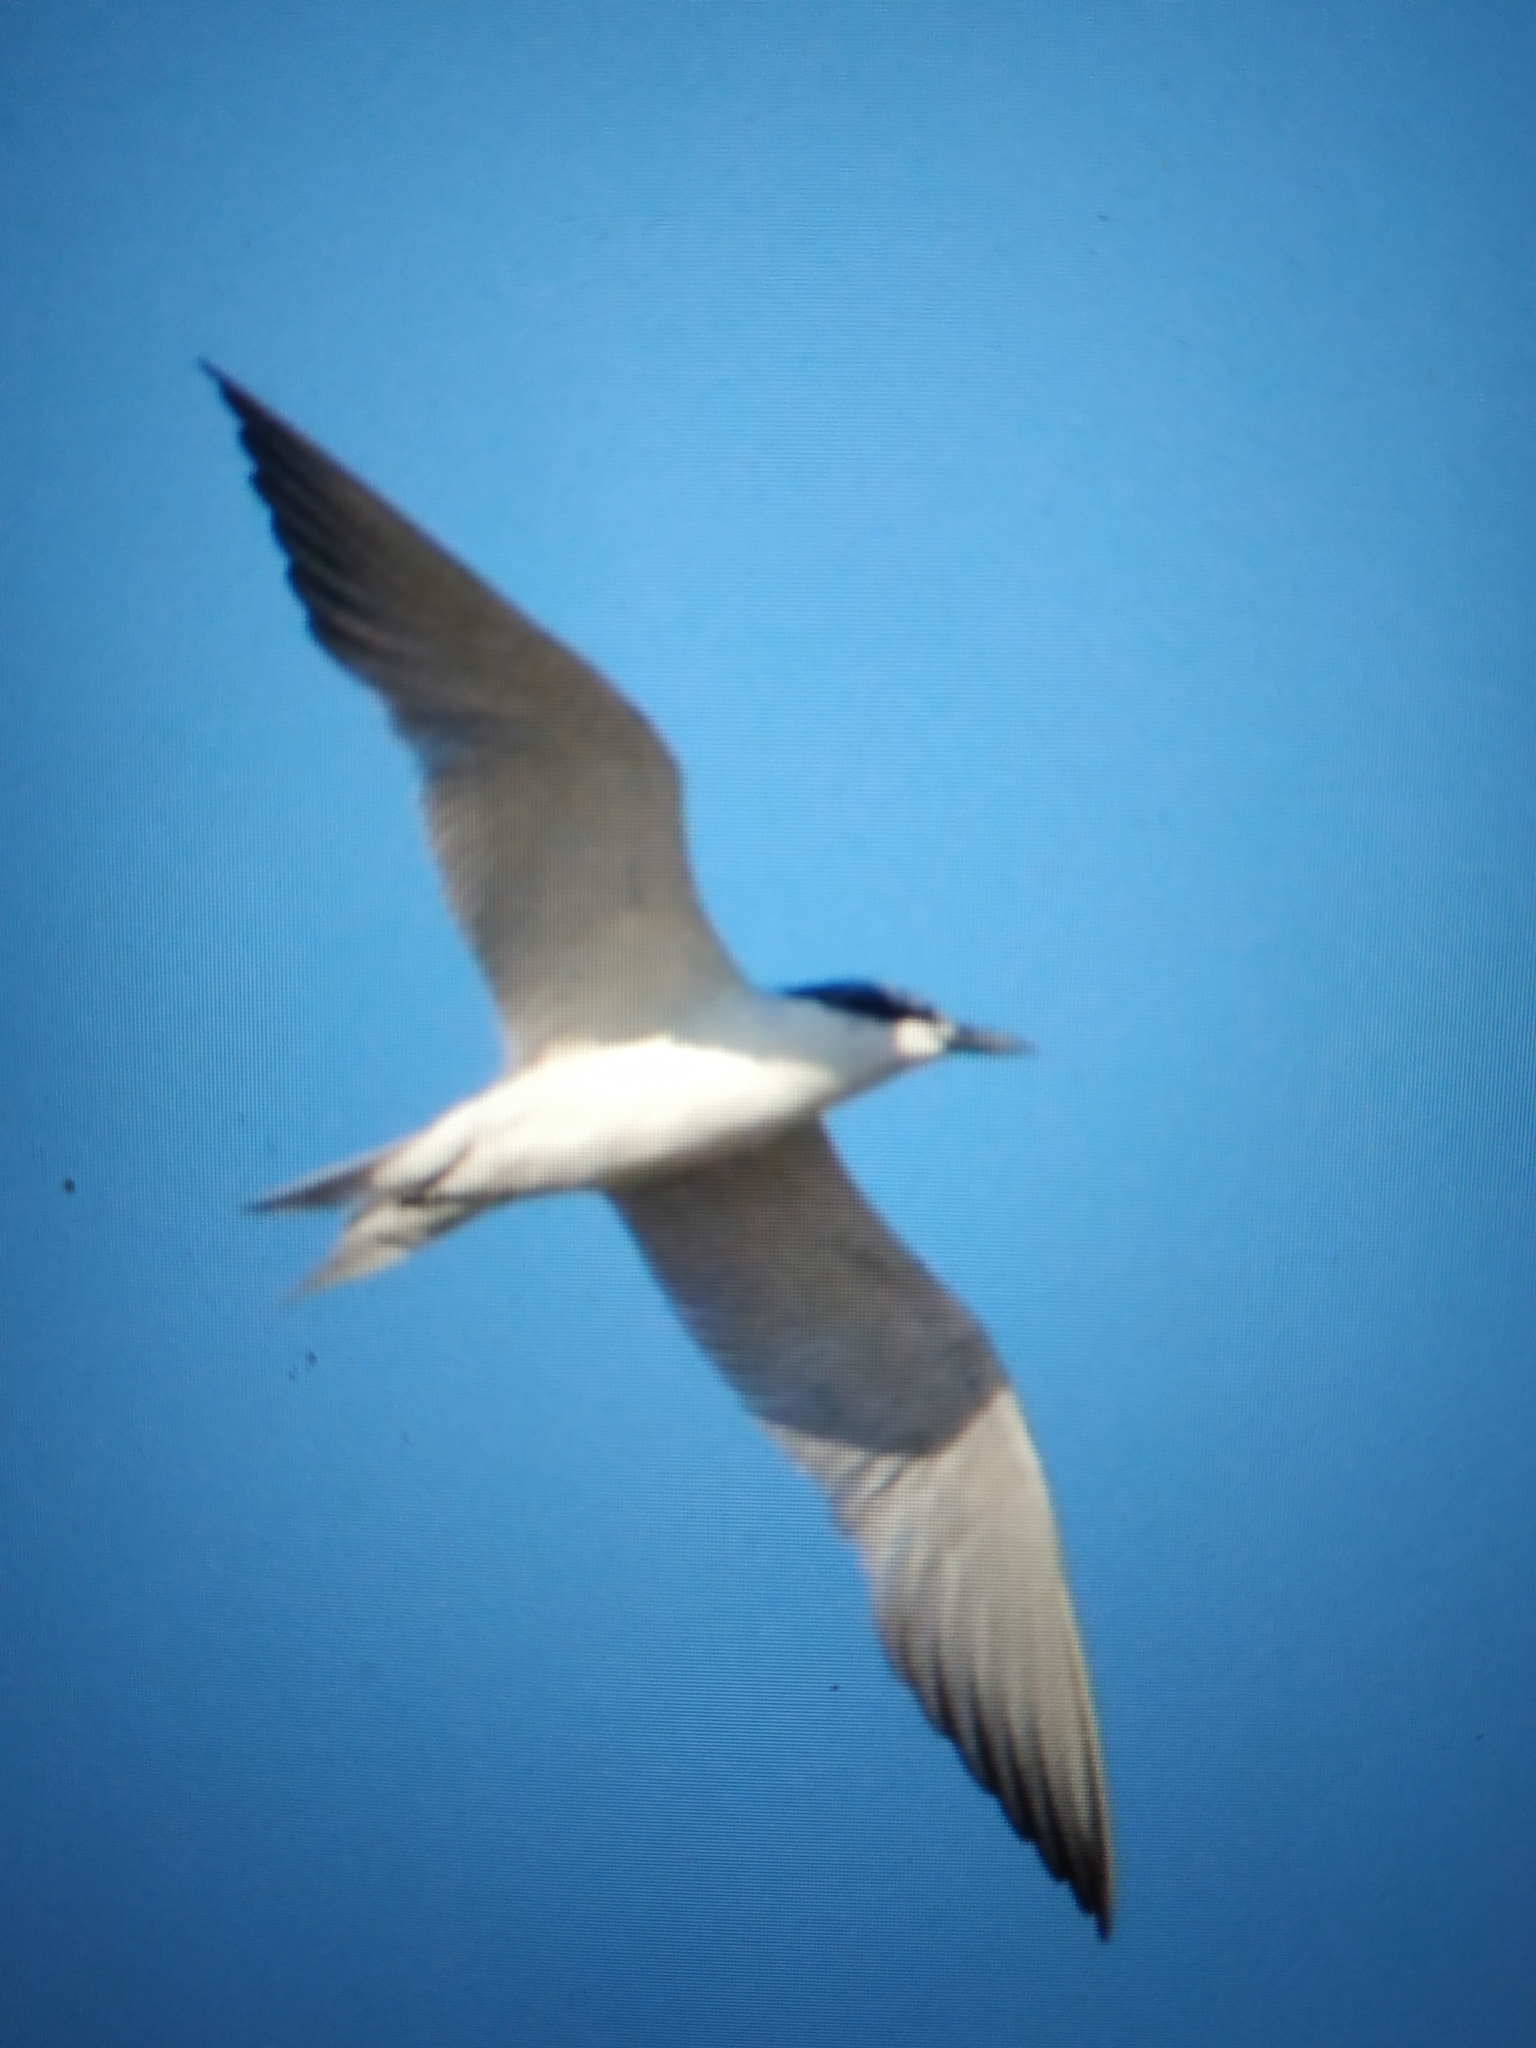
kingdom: Animalia
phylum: Chordata
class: Aves
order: Charadriiformes
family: Laridae
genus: Gelochelidon
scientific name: Gelochelidon nilotica
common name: Gull-billed tern
